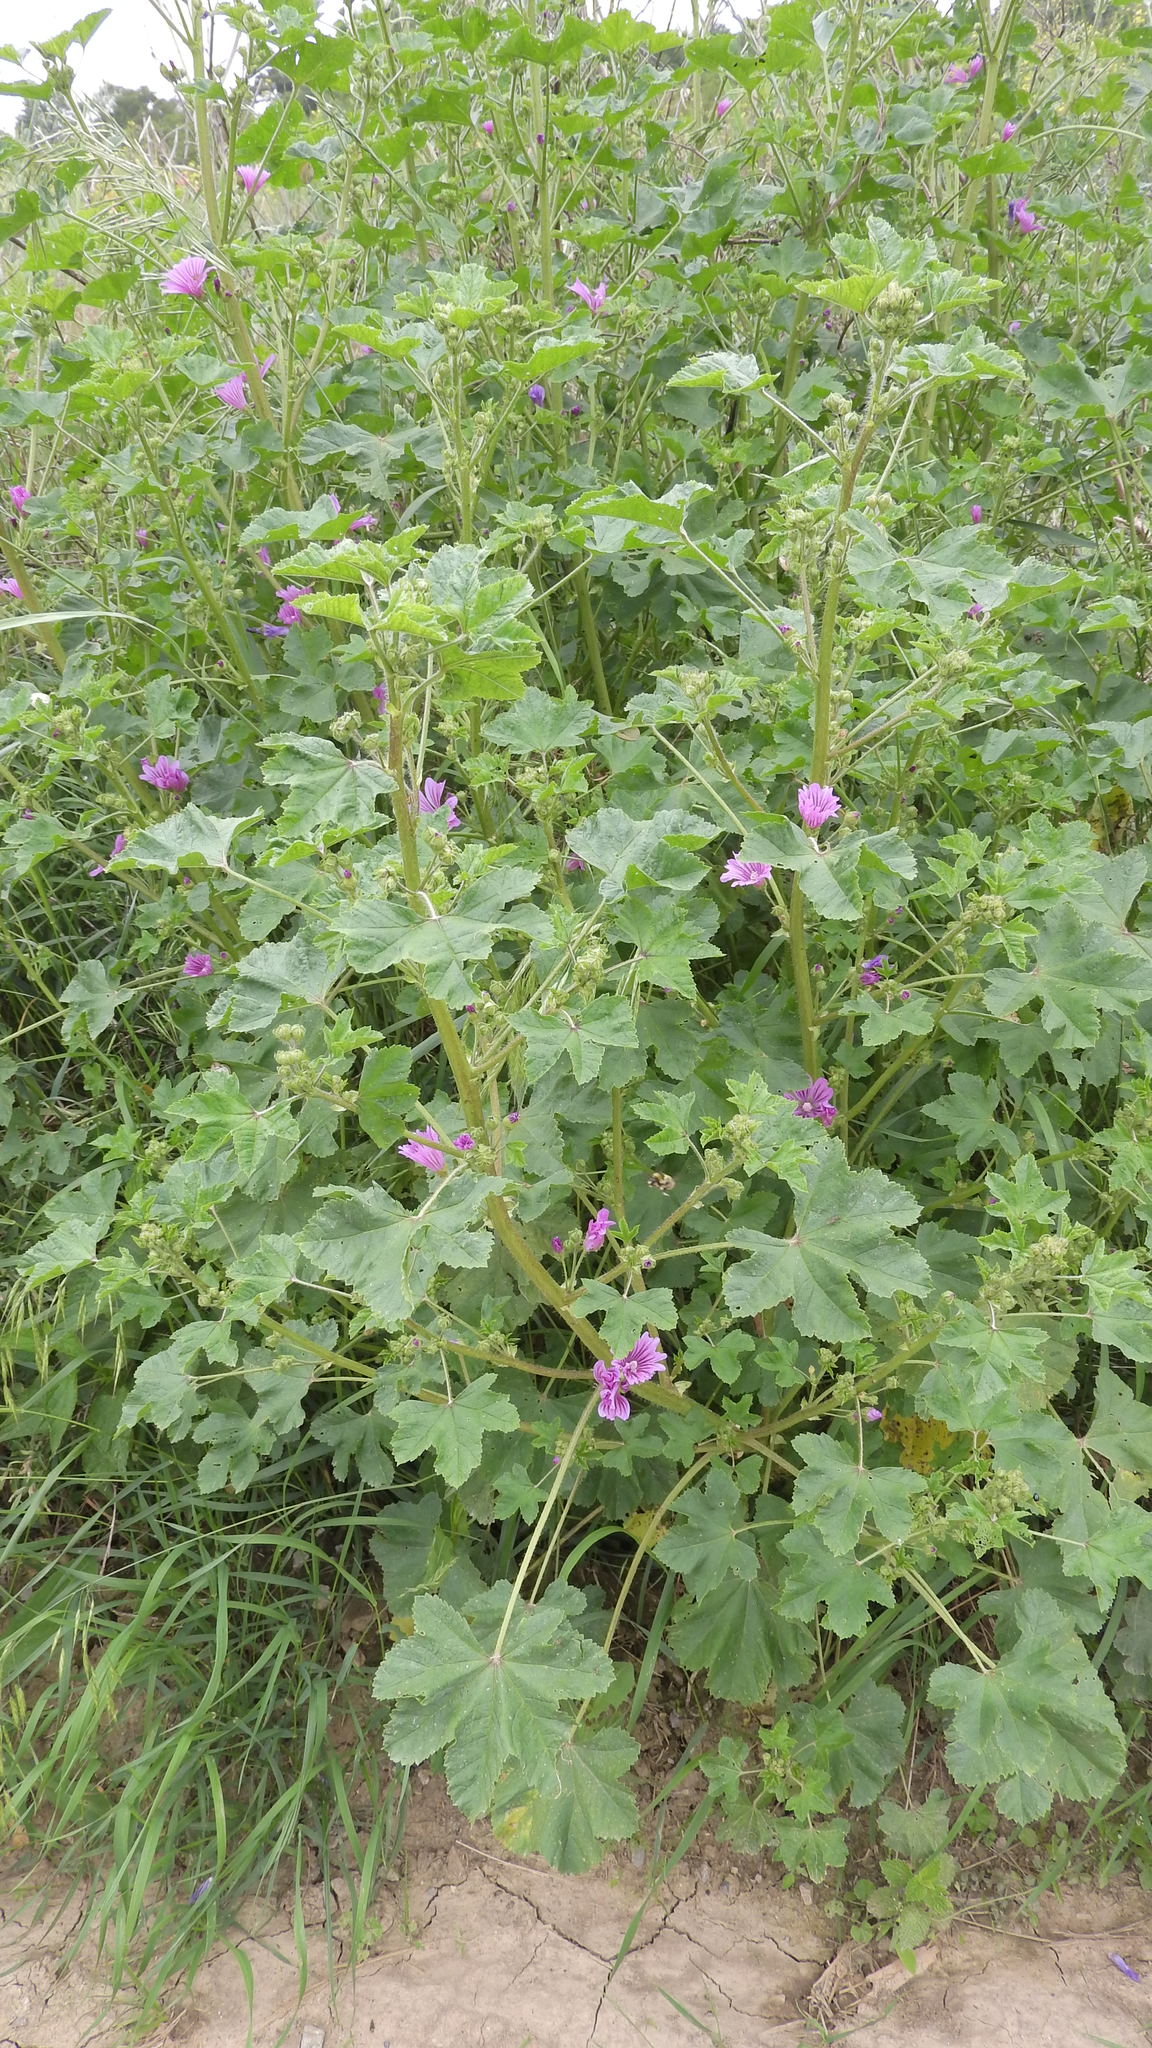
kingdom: Plantae
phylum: Tracheophyta
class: Magnoliopsida
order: Malvales
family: Malvaceae
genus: Malva
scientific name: Malva sylvestris
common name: Common mallow
